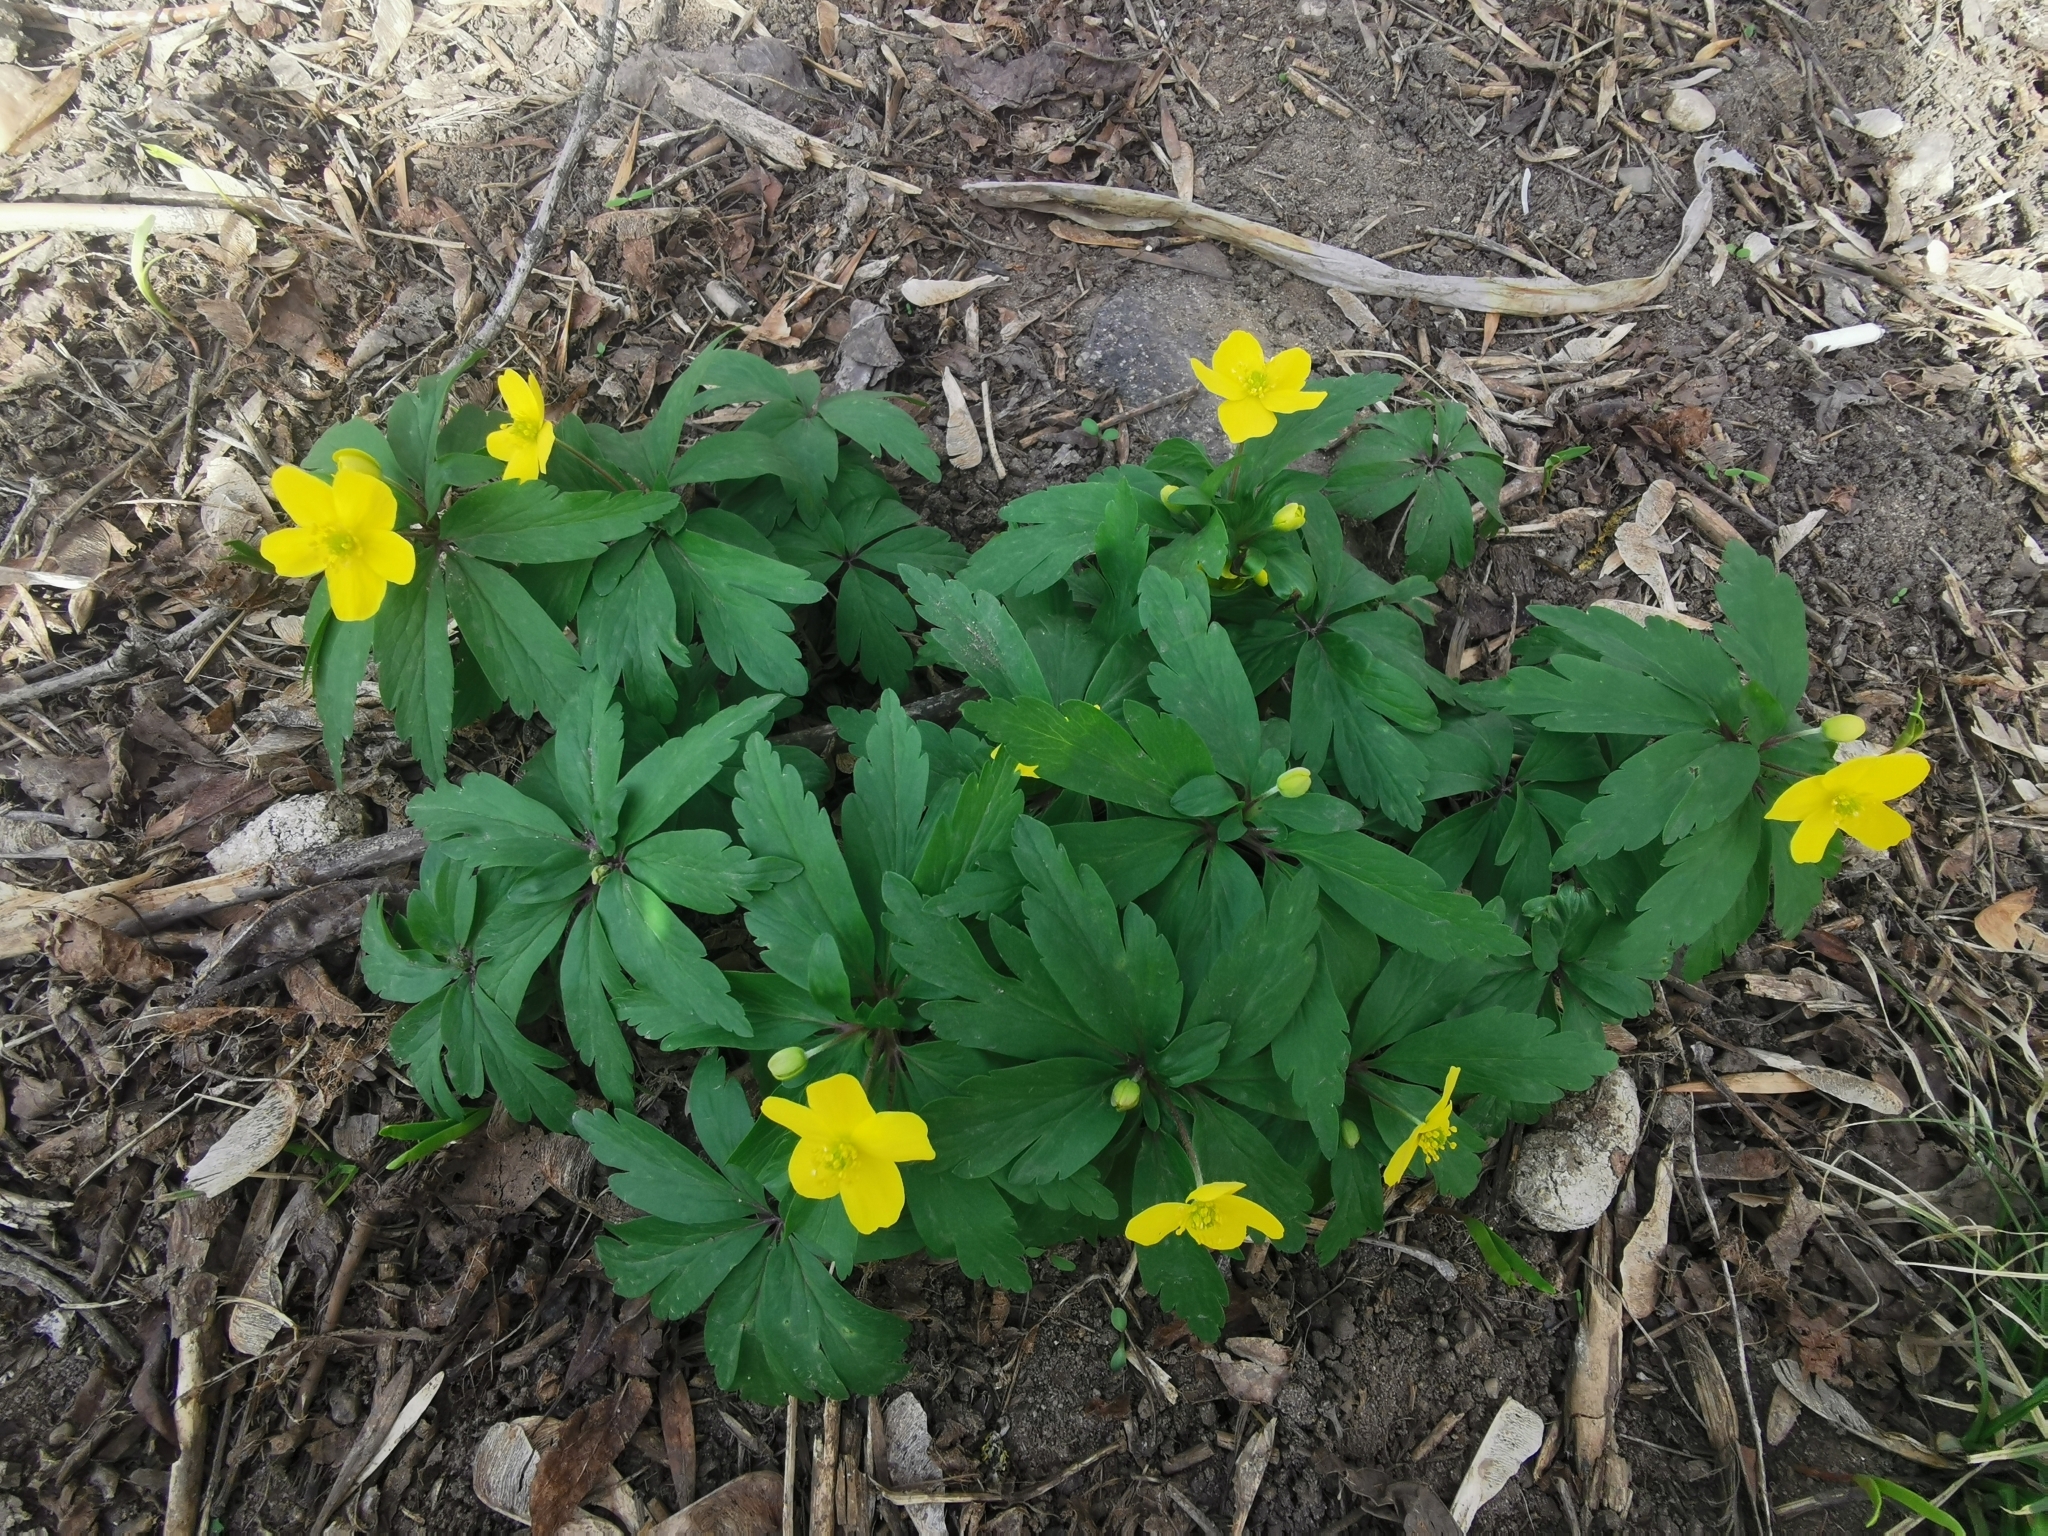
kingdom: Plantae
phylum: Tracheophyta
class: Magnoliopsida
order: Ranunculales
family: Ranunculaceae
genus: Anemone
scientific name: Anemone ranunculoides
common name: Yellow anemone
